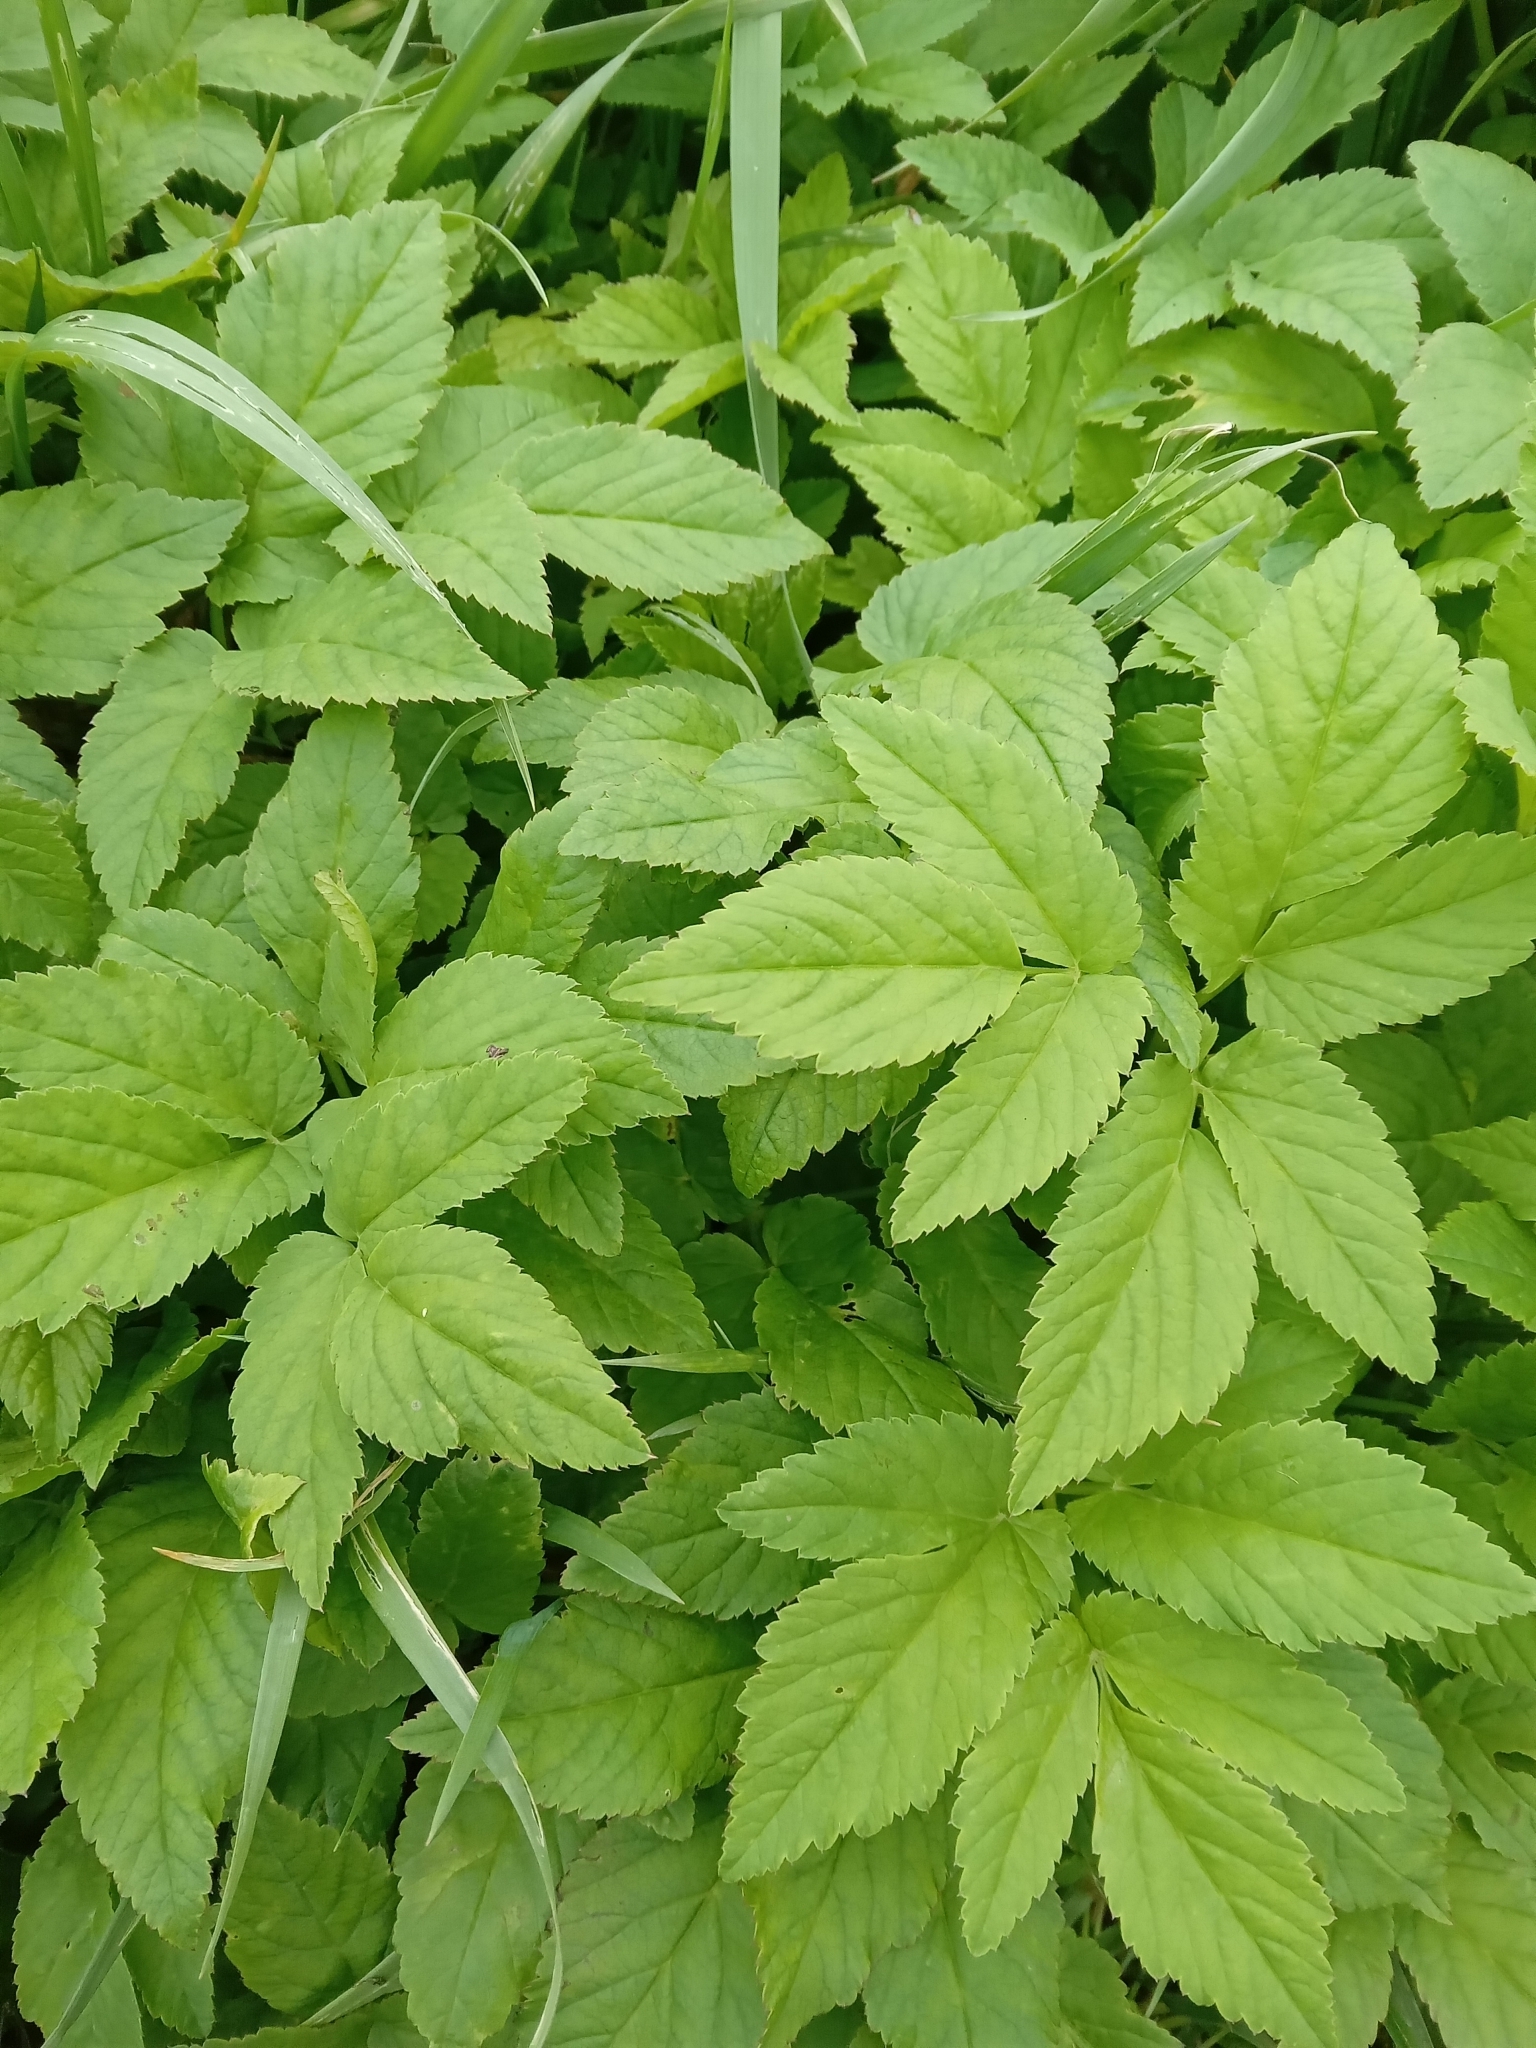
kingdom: Plantae
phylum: Tracheophyta
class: Magnoliopsida
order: Apiales
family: Apiaceae
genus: Aegopodium
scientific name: Aegopodium podagraria
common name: Ground-elder
